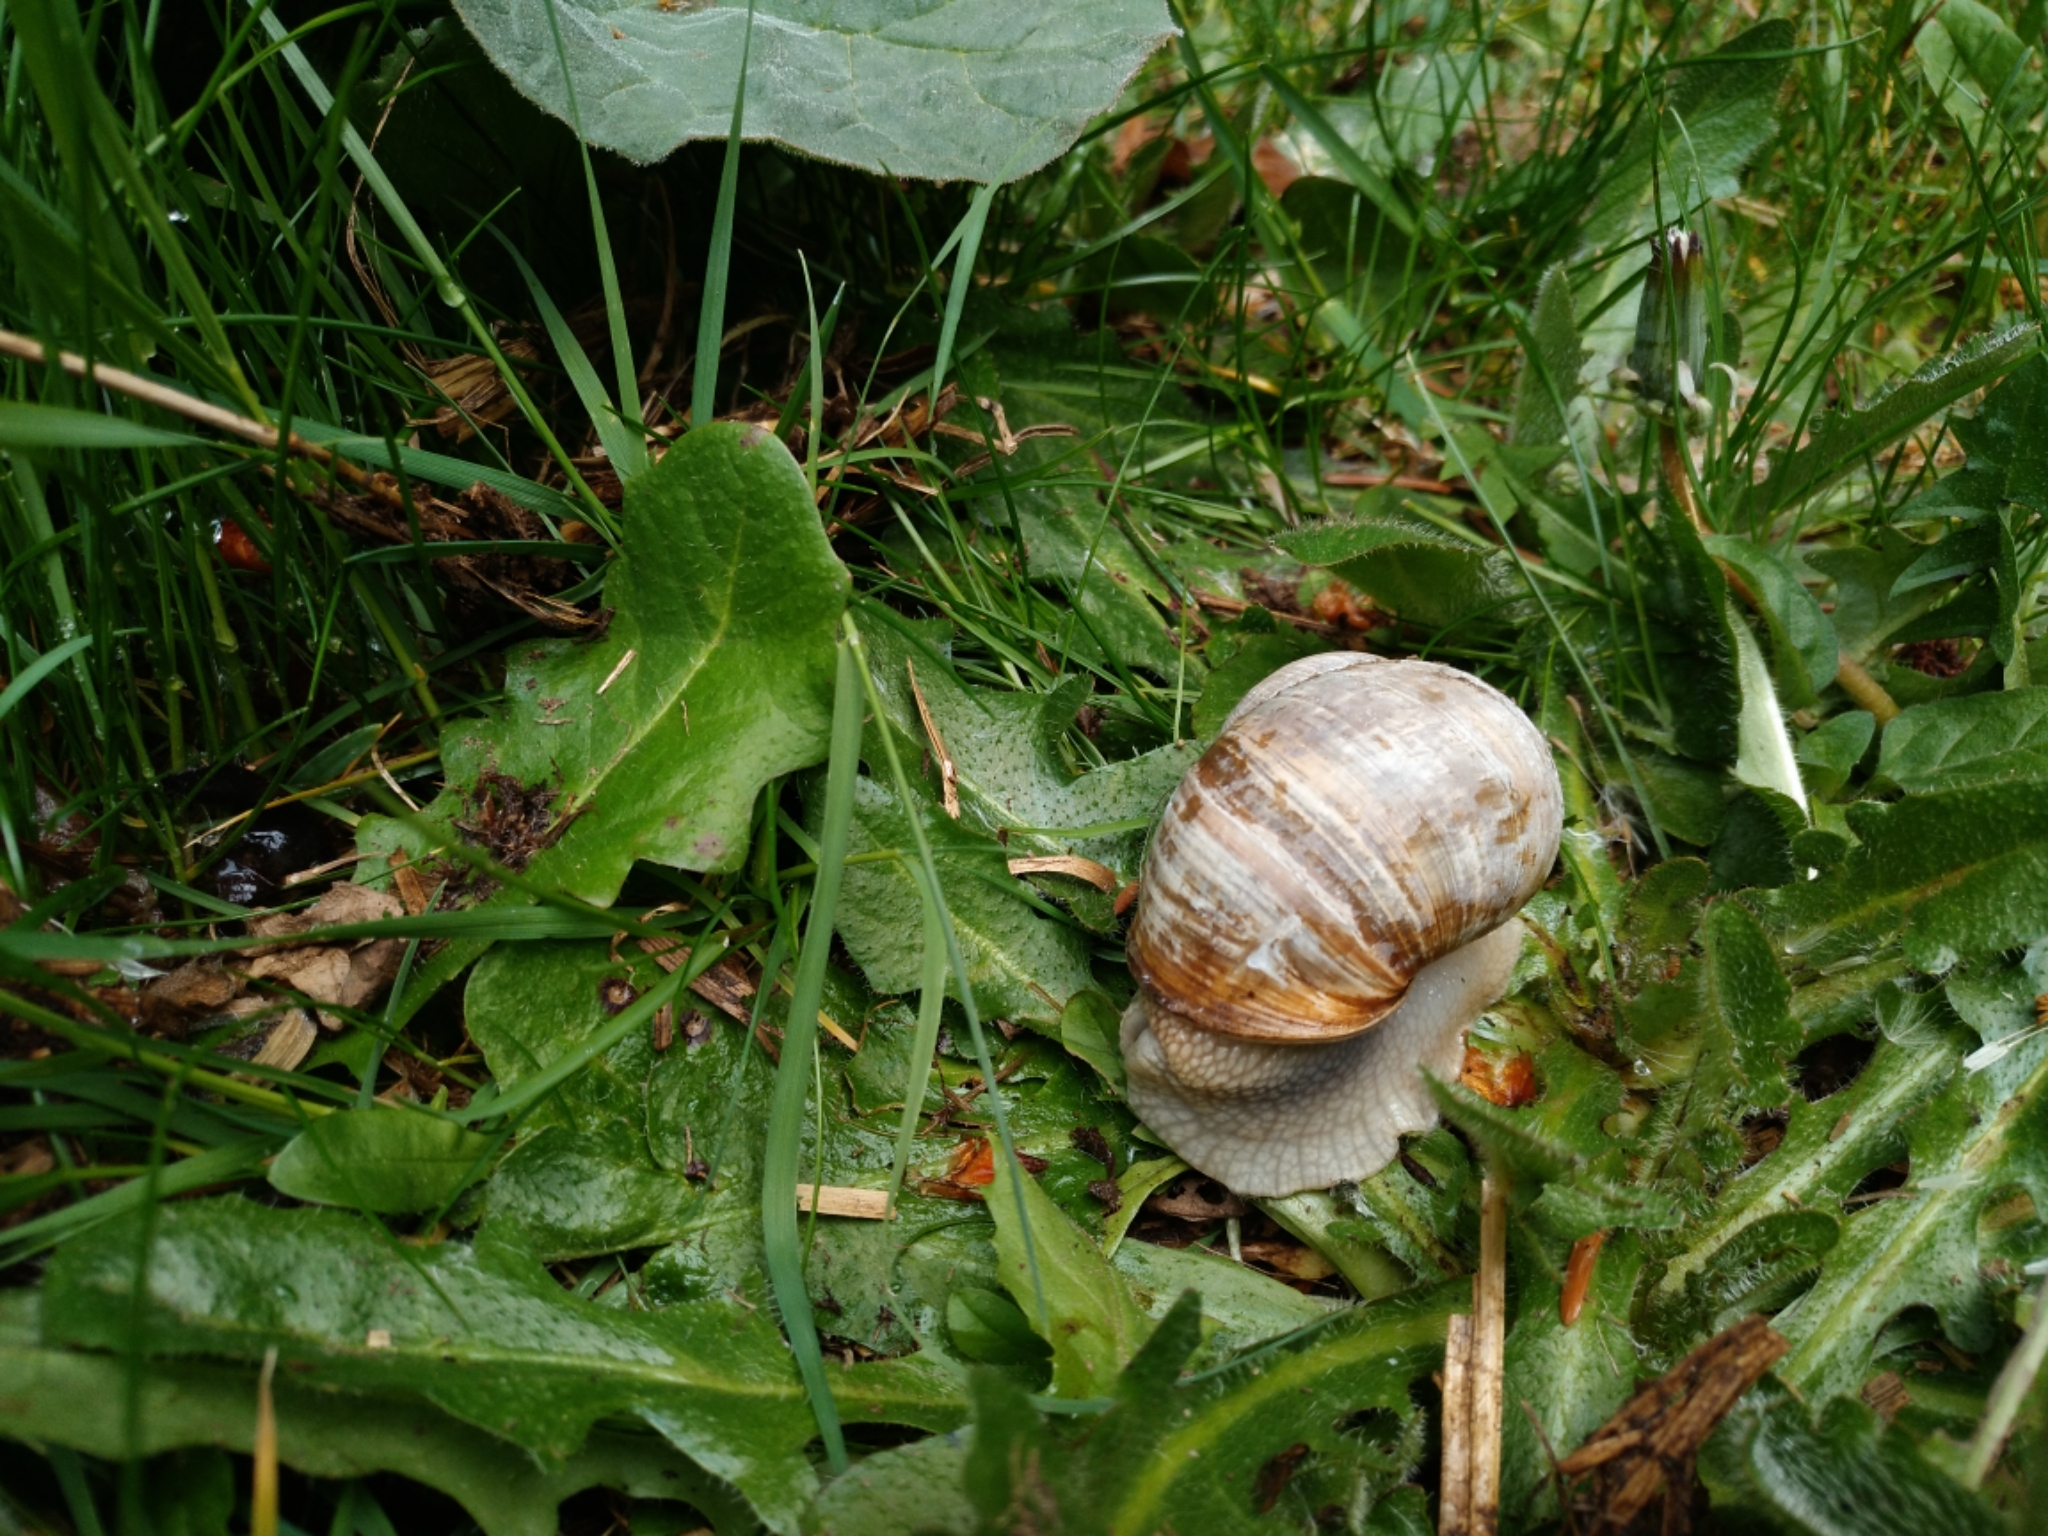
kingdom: Animalia
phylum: Mollusca
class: Gastropoda
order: Stylommatophora
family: Helicidae
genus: Helix
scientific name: Helix pomatia
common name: Roman snail
